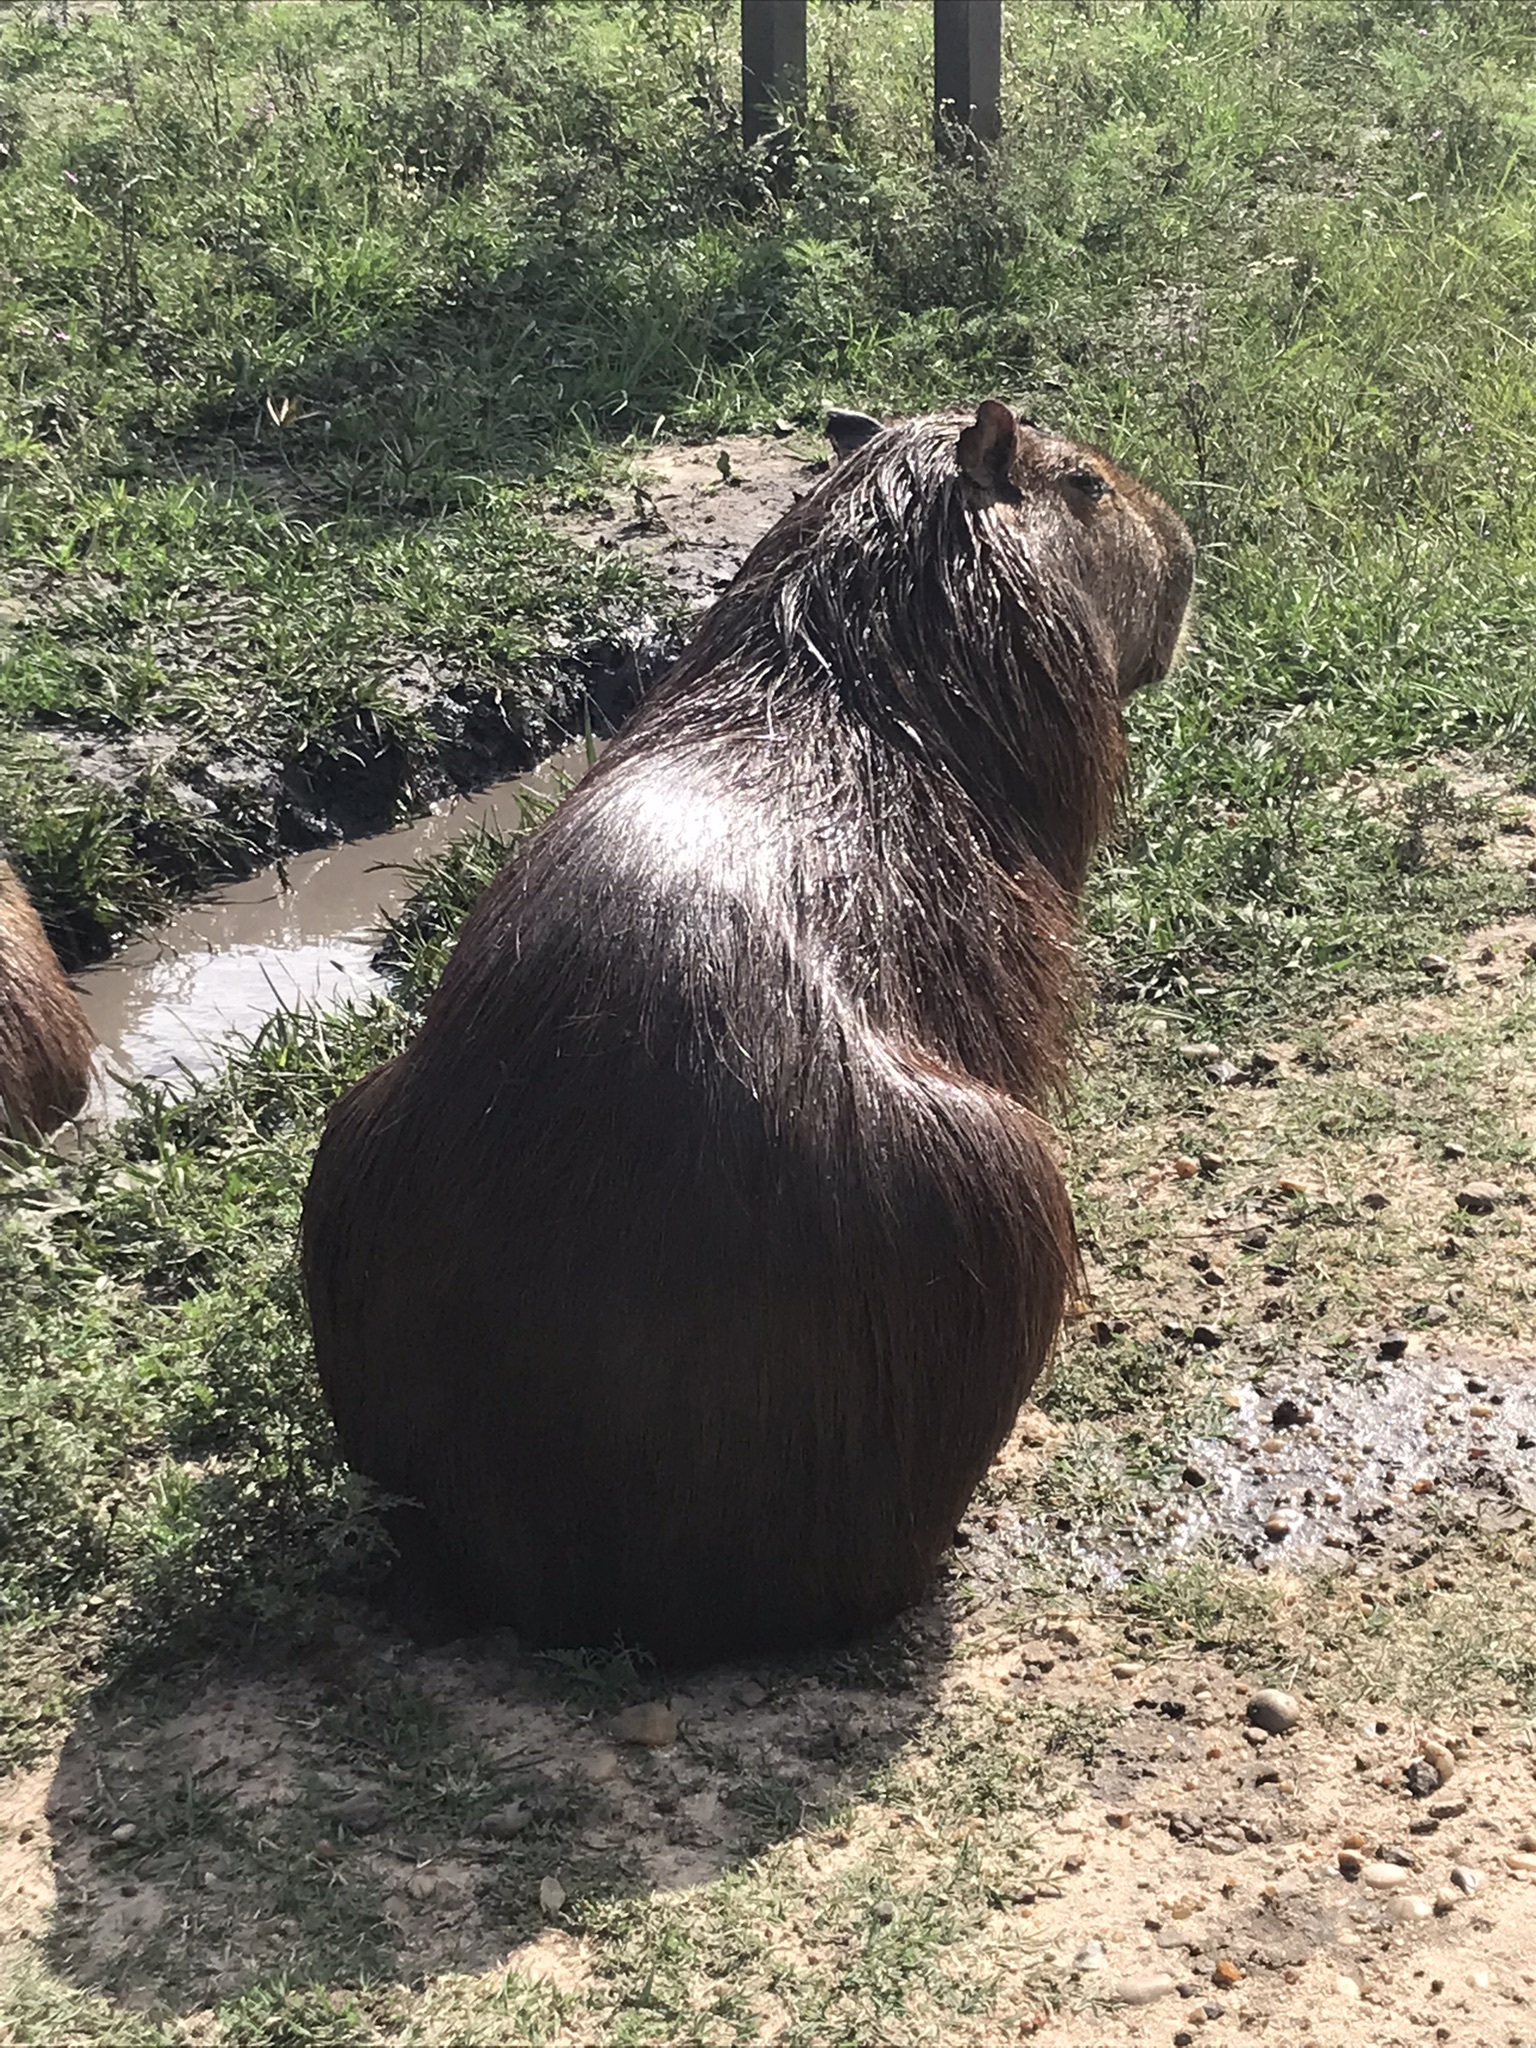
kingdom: Animalia
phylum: Chordata
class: Mammalia
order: Rodentia
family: Caviidae
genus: Hydrochoerus
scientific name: Hydrochoerus hydrochaeris
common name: Capybara
